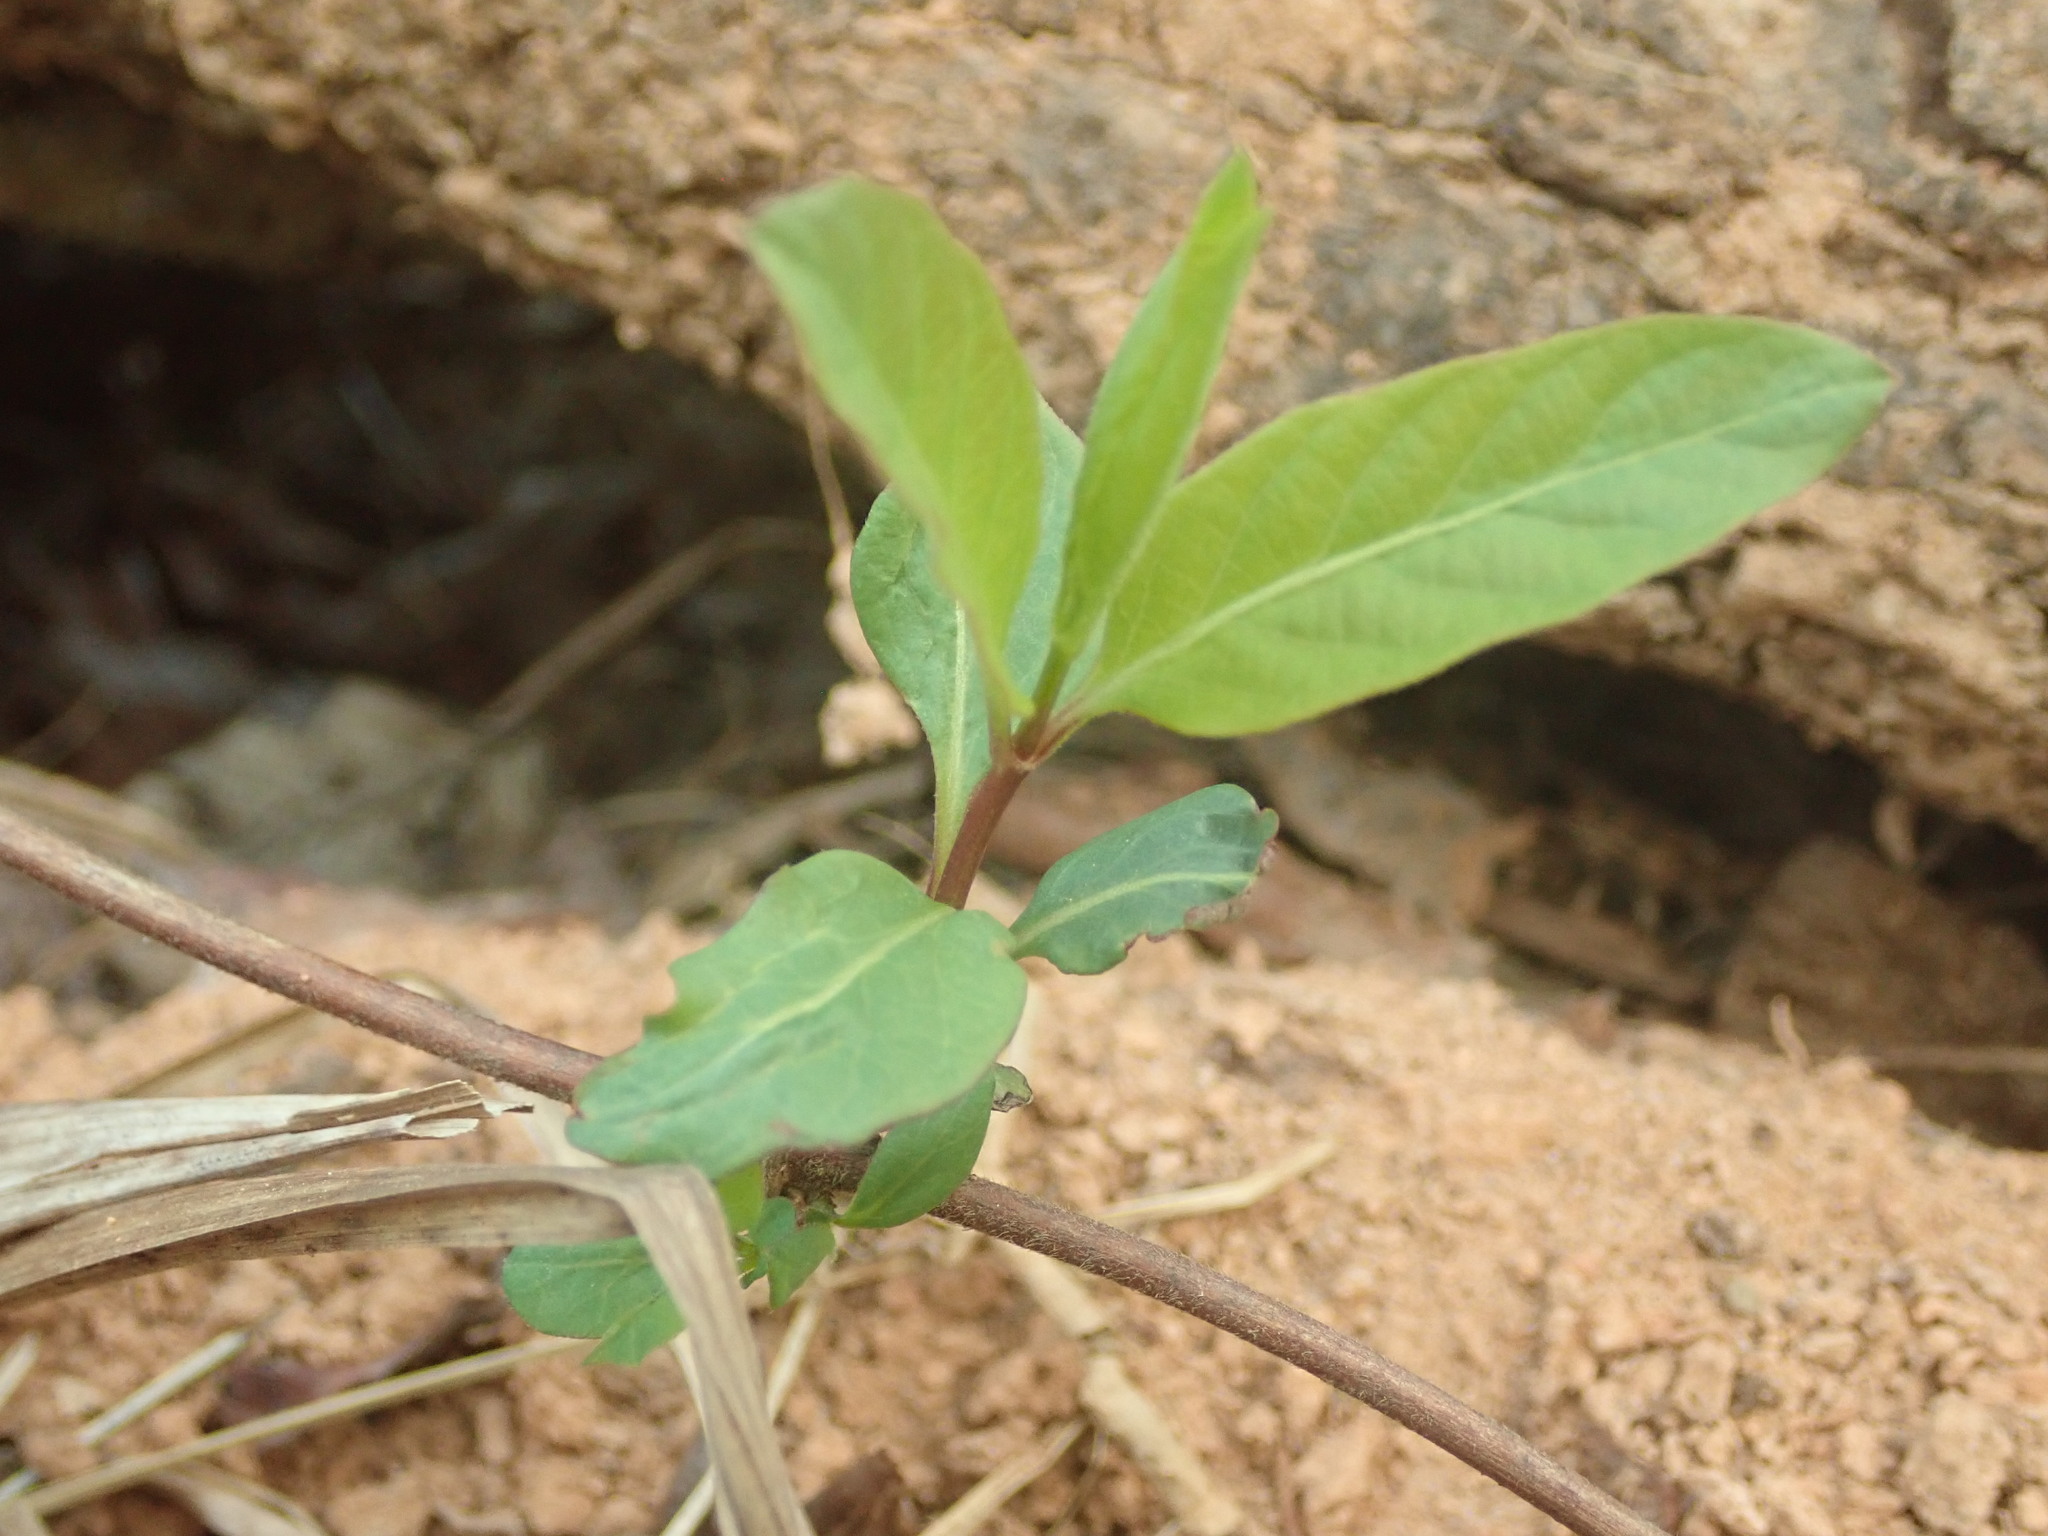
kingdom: Plantae
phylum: Tracheophyta
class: Magnoliopsida
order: Dipsacales
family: Caprifoliaceae
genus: Lonicera
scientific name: Lonicera japonica
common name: Japanese honeysuckle
